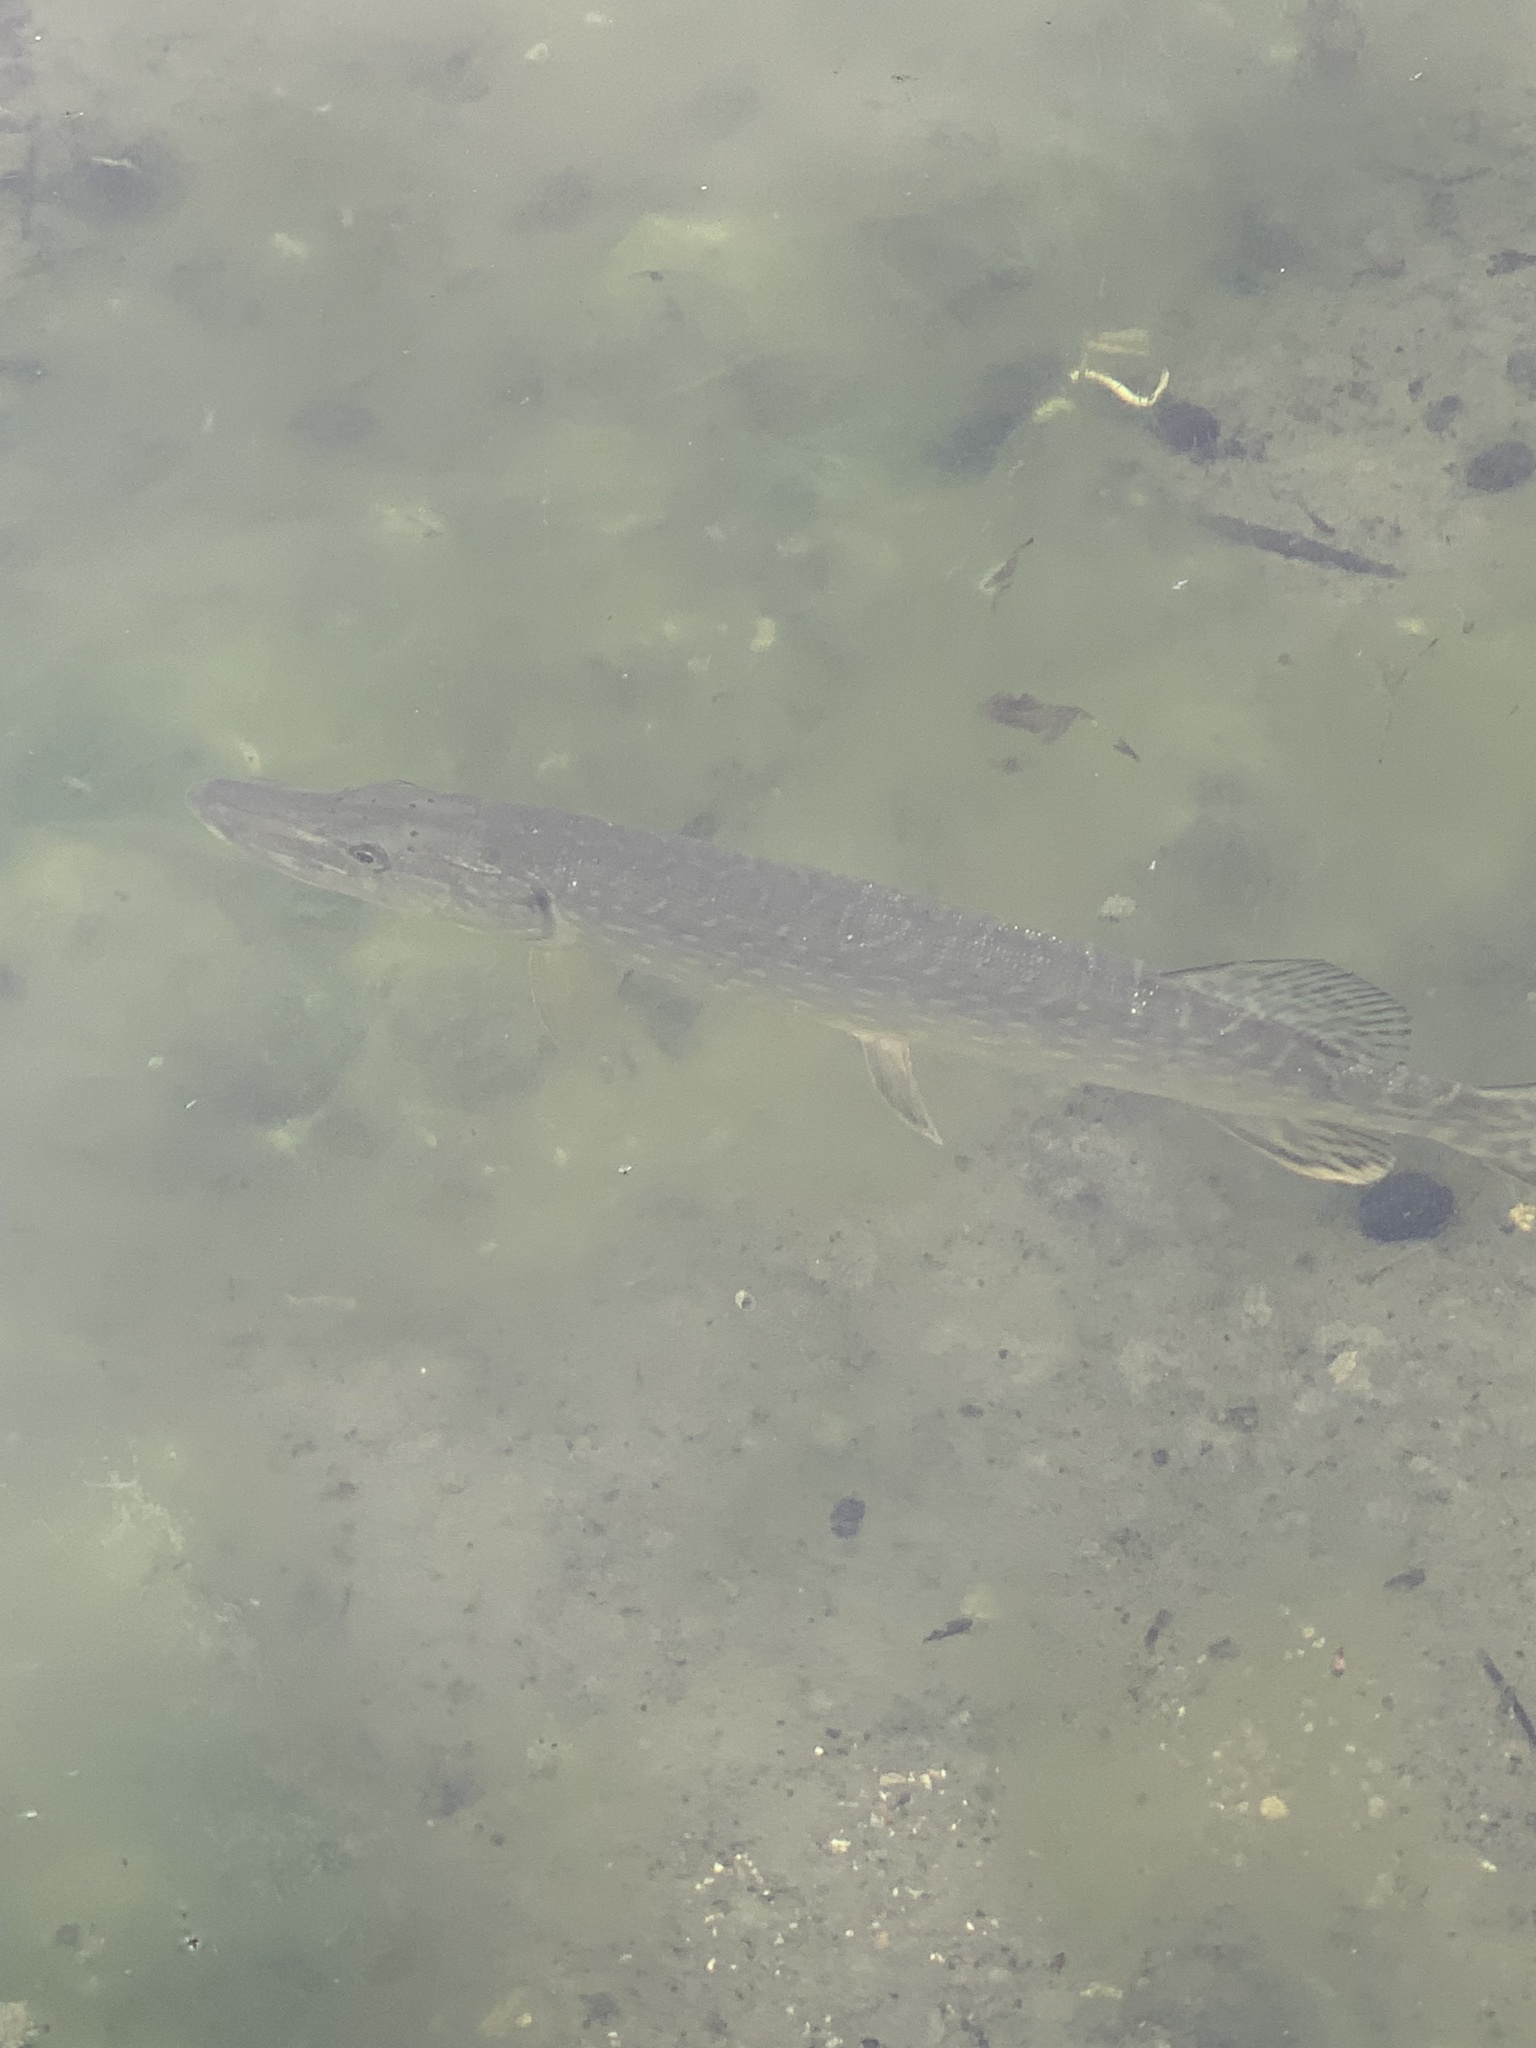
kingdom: Animalia
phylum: Chordata
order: Esociformes
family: Esocidae
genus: Esox
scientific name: Esox lucius
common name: Northern pike
